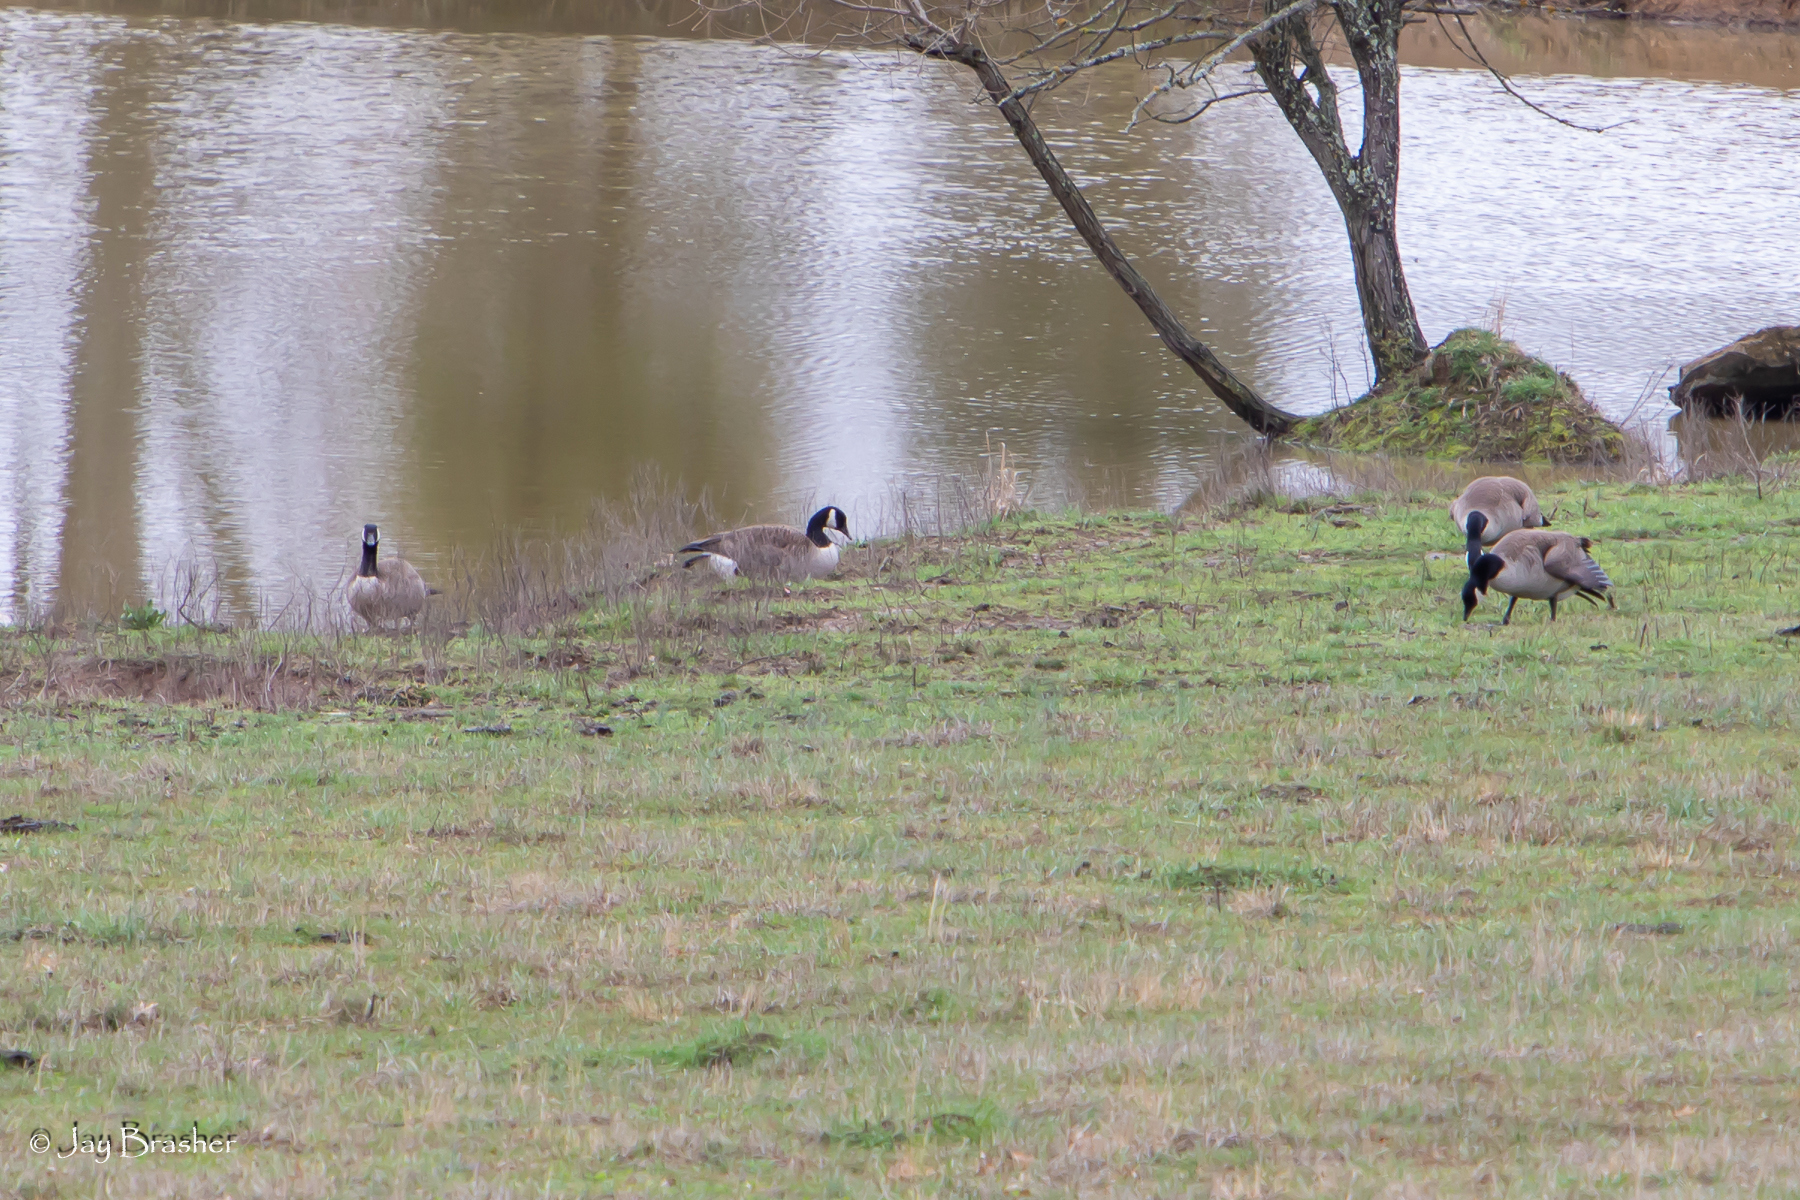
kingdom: Animalia
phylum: Chordata
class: Aves
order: Anseriformes
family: Anatidae
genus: Branta
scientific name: Branta canadensis
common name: Canada goose
